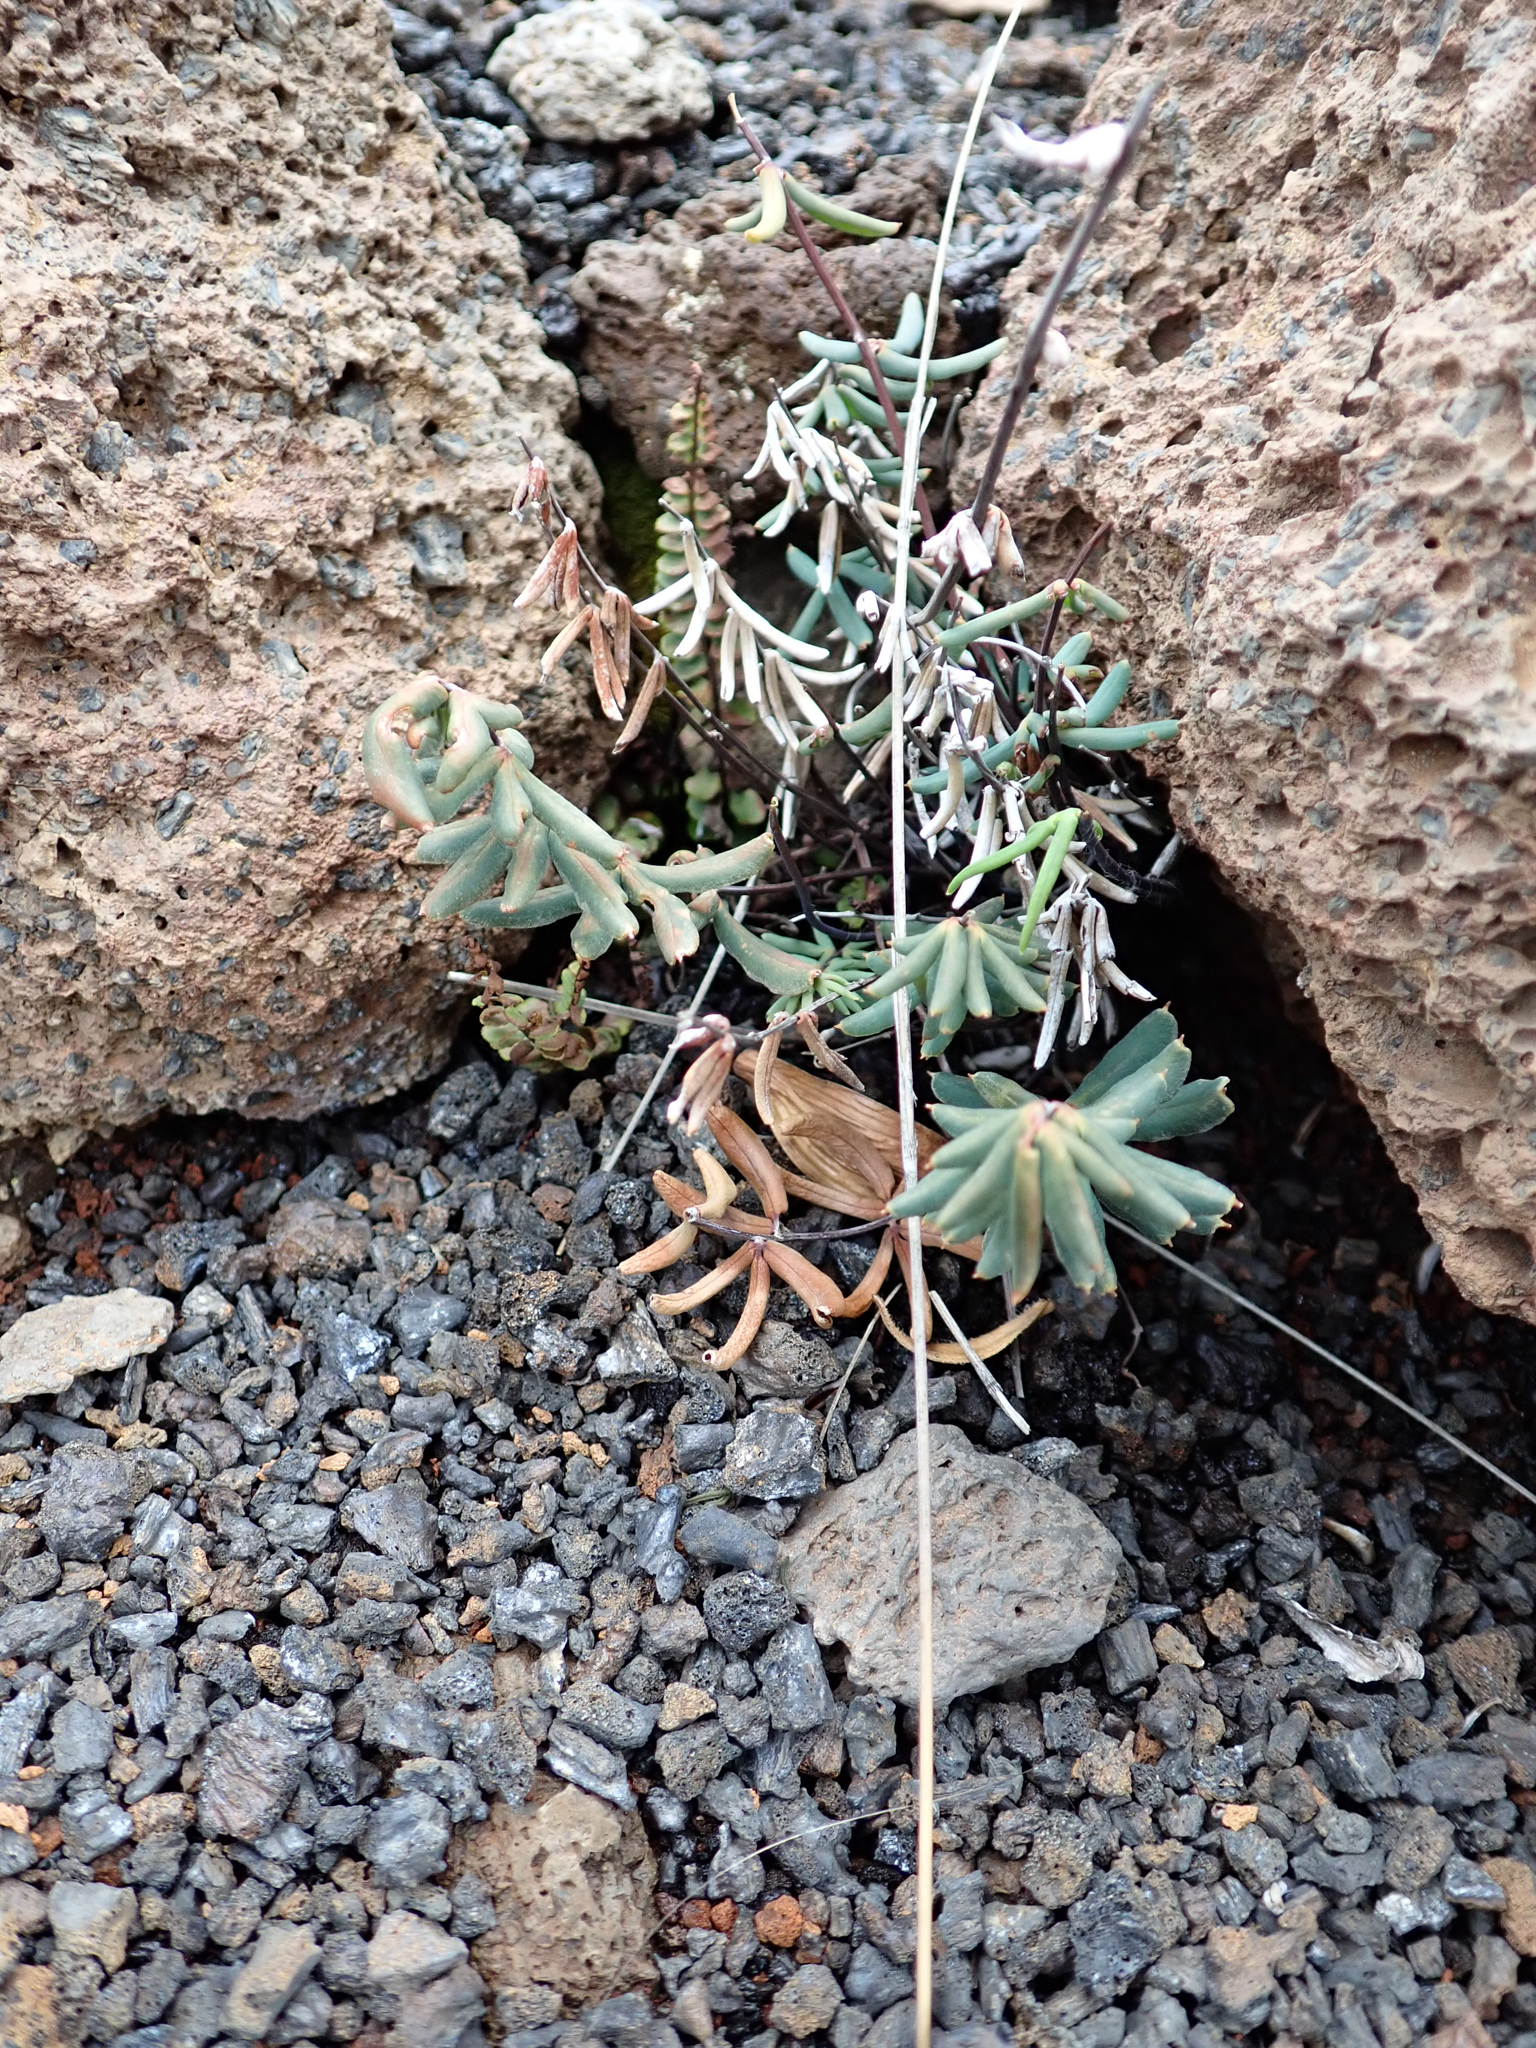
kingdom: Plantae
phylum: Tracheophyta
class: Polypodiopsida
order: Polypodiales
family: Pteridaceae
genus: Pellaea
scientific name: Pellaea ternifolia
